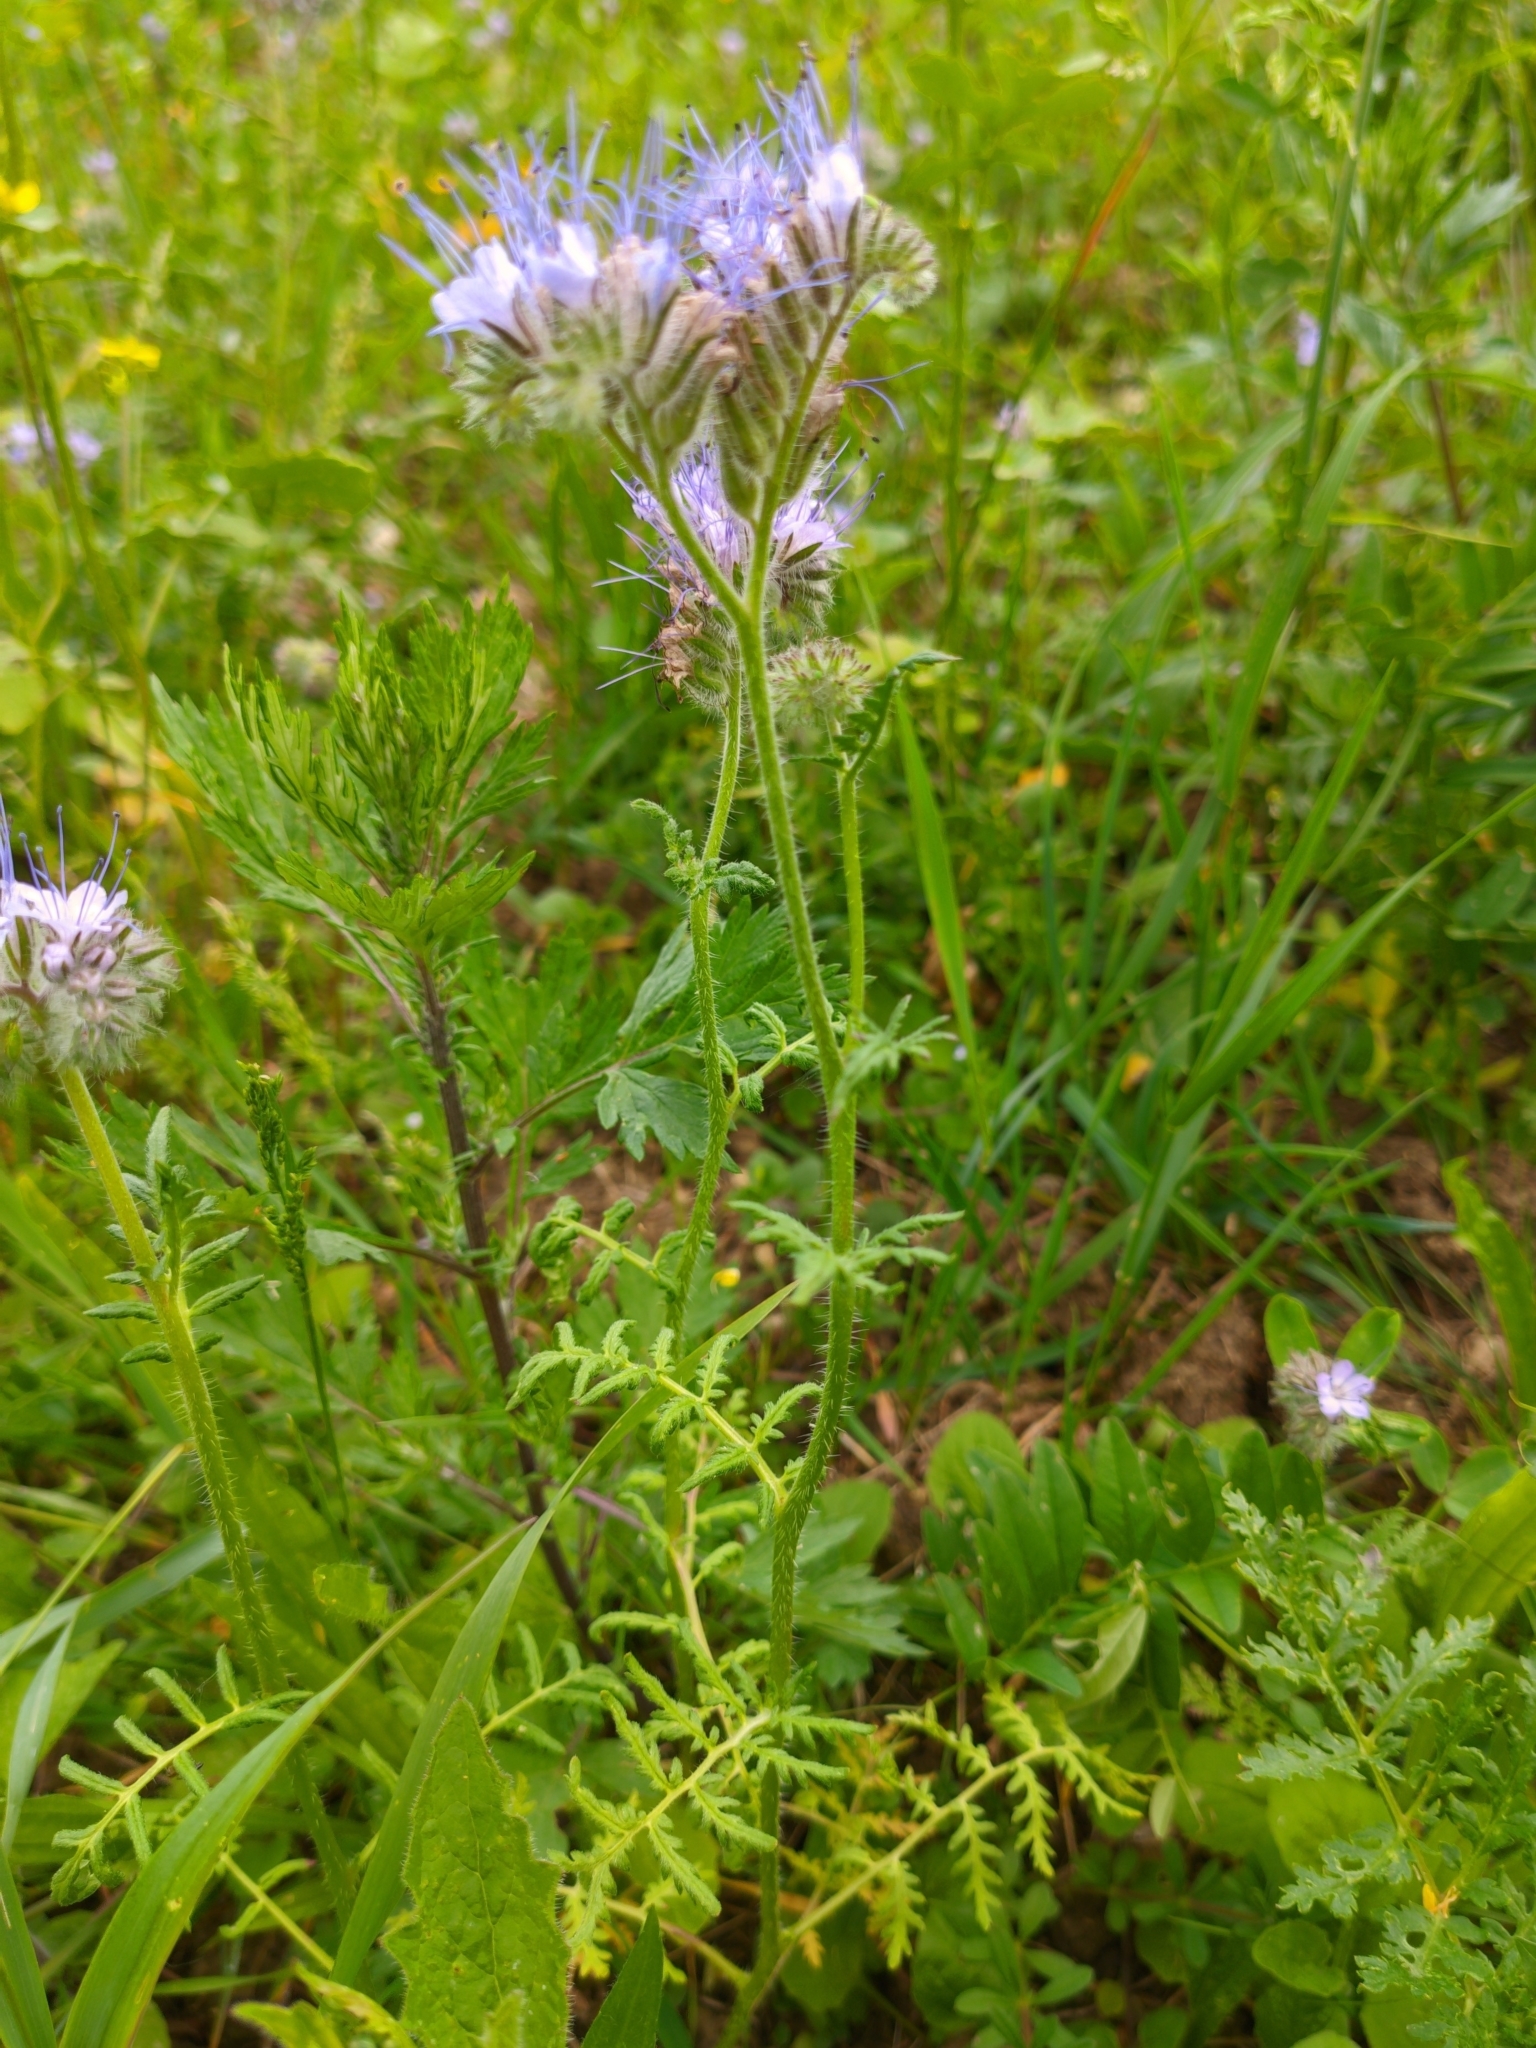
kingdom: Plantae
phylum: Tracheophyta
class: Magnoliopsida
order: Boraginales
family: Hydrophyllaceae
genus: Phacelia
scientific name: Phacelia tanacetifolia
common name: Phacelia
